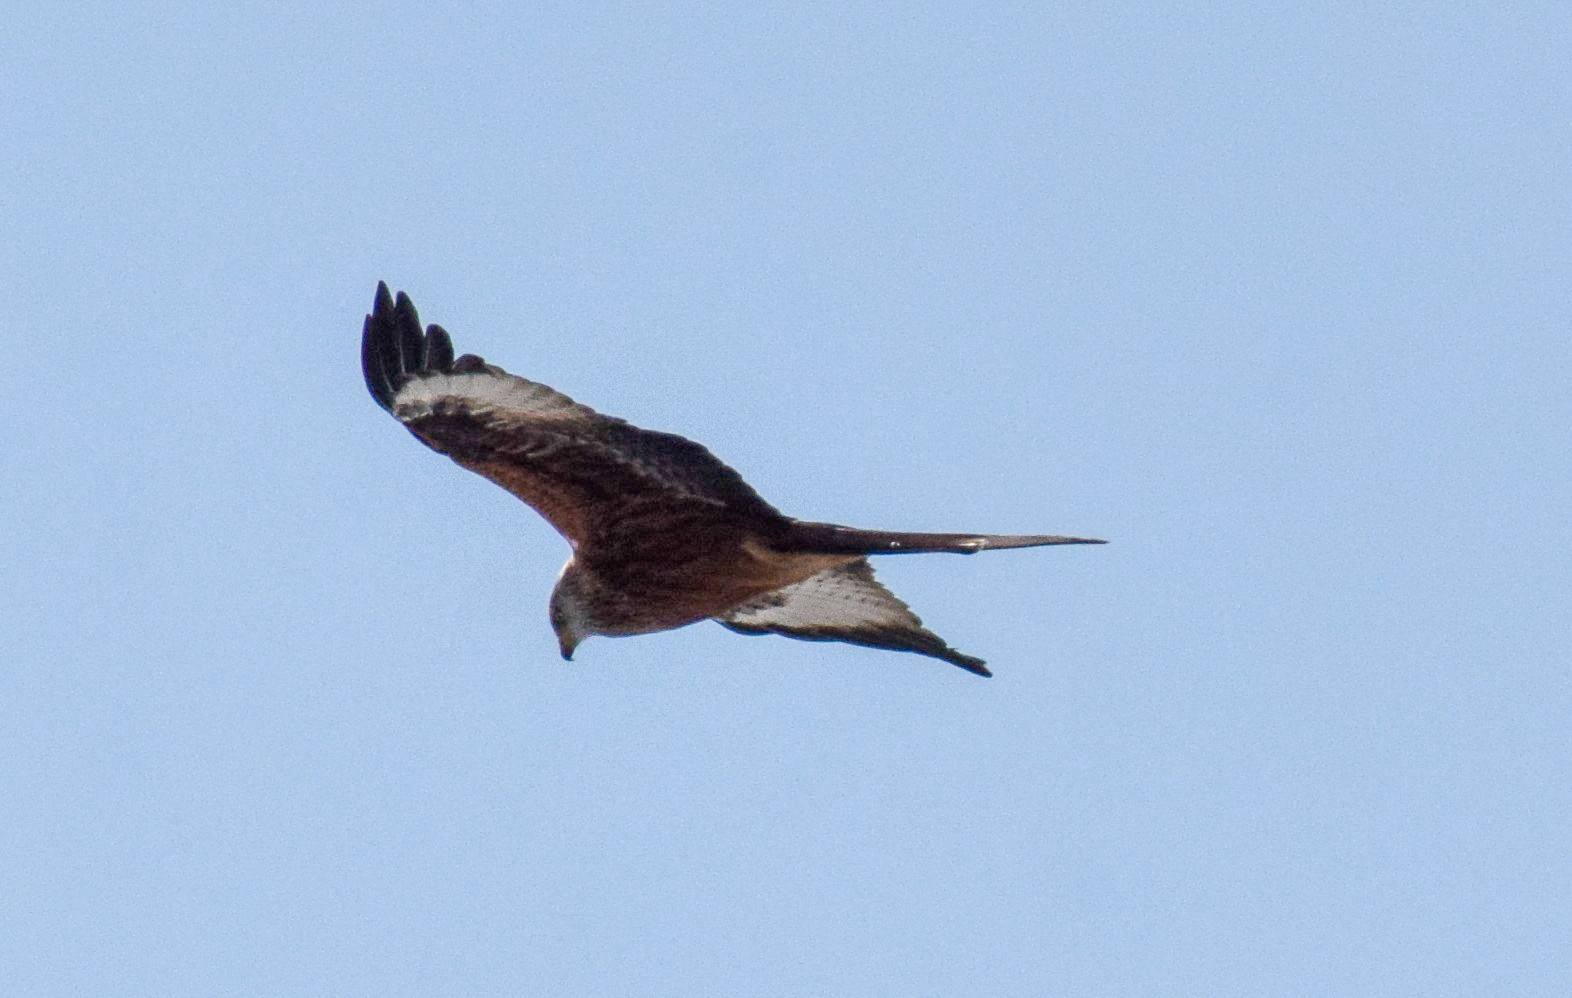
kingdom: Animalia
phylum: Chordata
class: Aves
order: Accipitriformes
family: Accipitridae
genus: Milvus
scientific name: Milvus milvus
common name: Red kite
